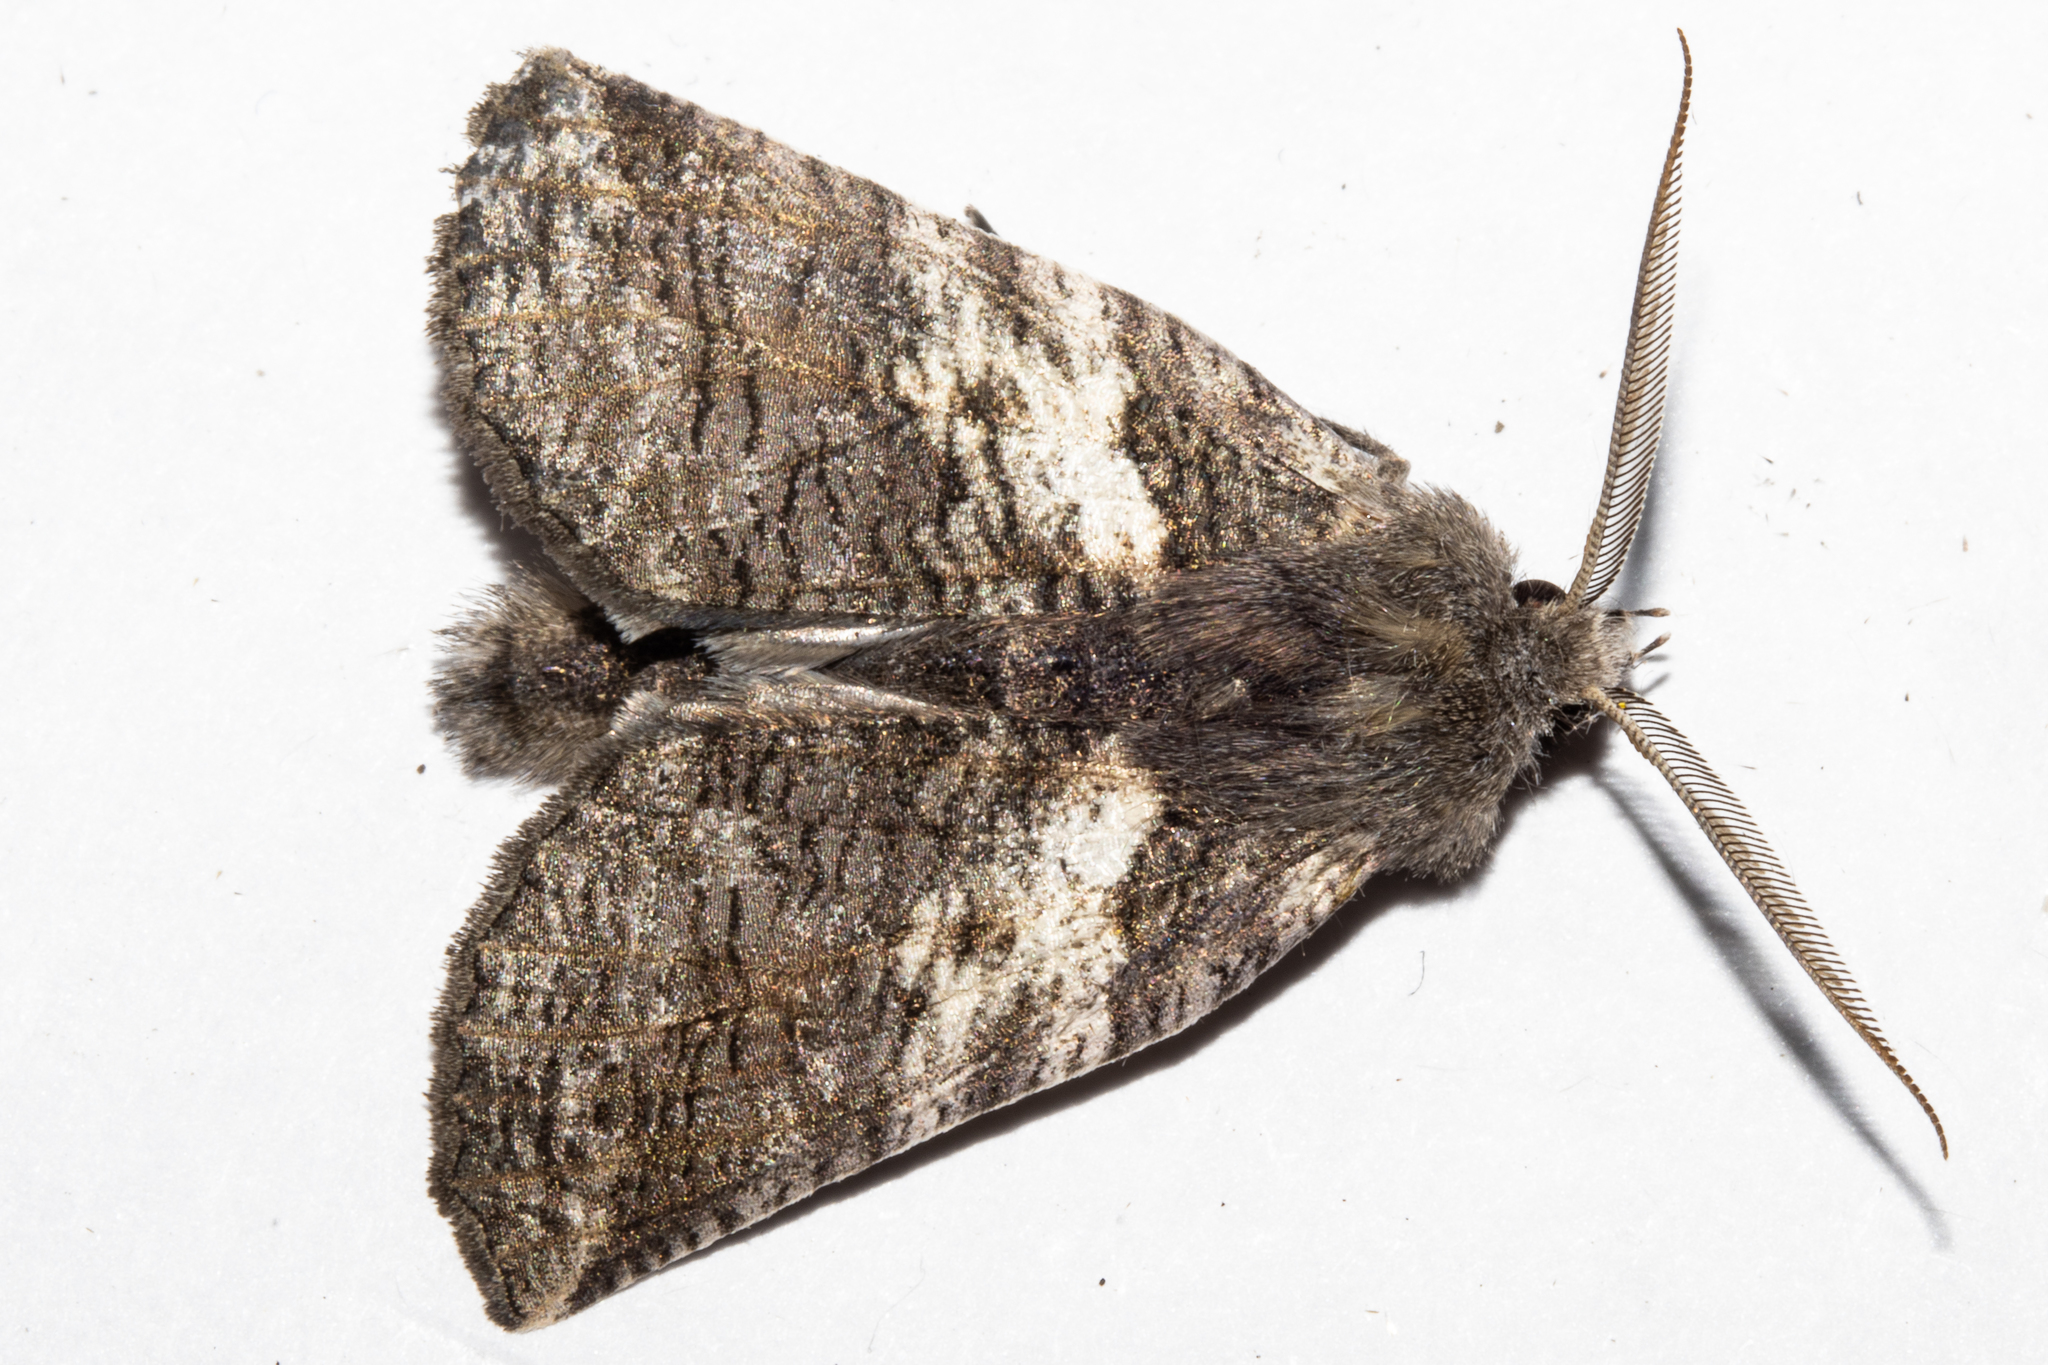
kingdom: Animalia
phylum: Arthropoda
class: Insecta
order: Lepidoptera
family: Geometridae
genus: Declana
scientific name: Declana
